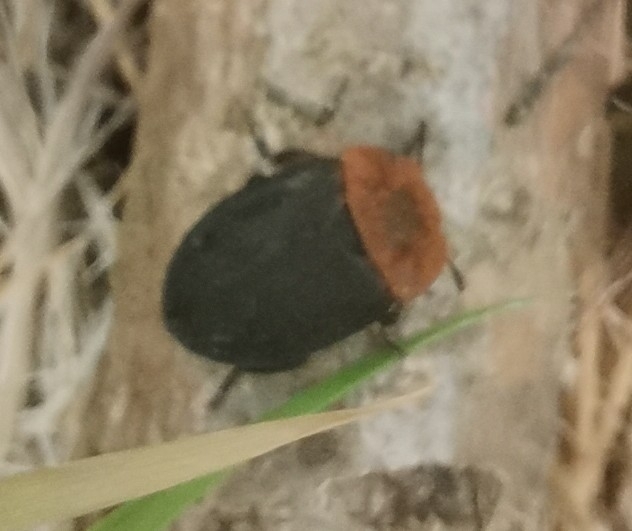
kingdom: Animalia
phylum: Arthropoda
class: Insecta
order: Coleoptera
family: Staphylinidae
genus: Oiceoptoma
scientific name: Oiceoptoma thoracicum
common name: Red-breasted carrion beetle
